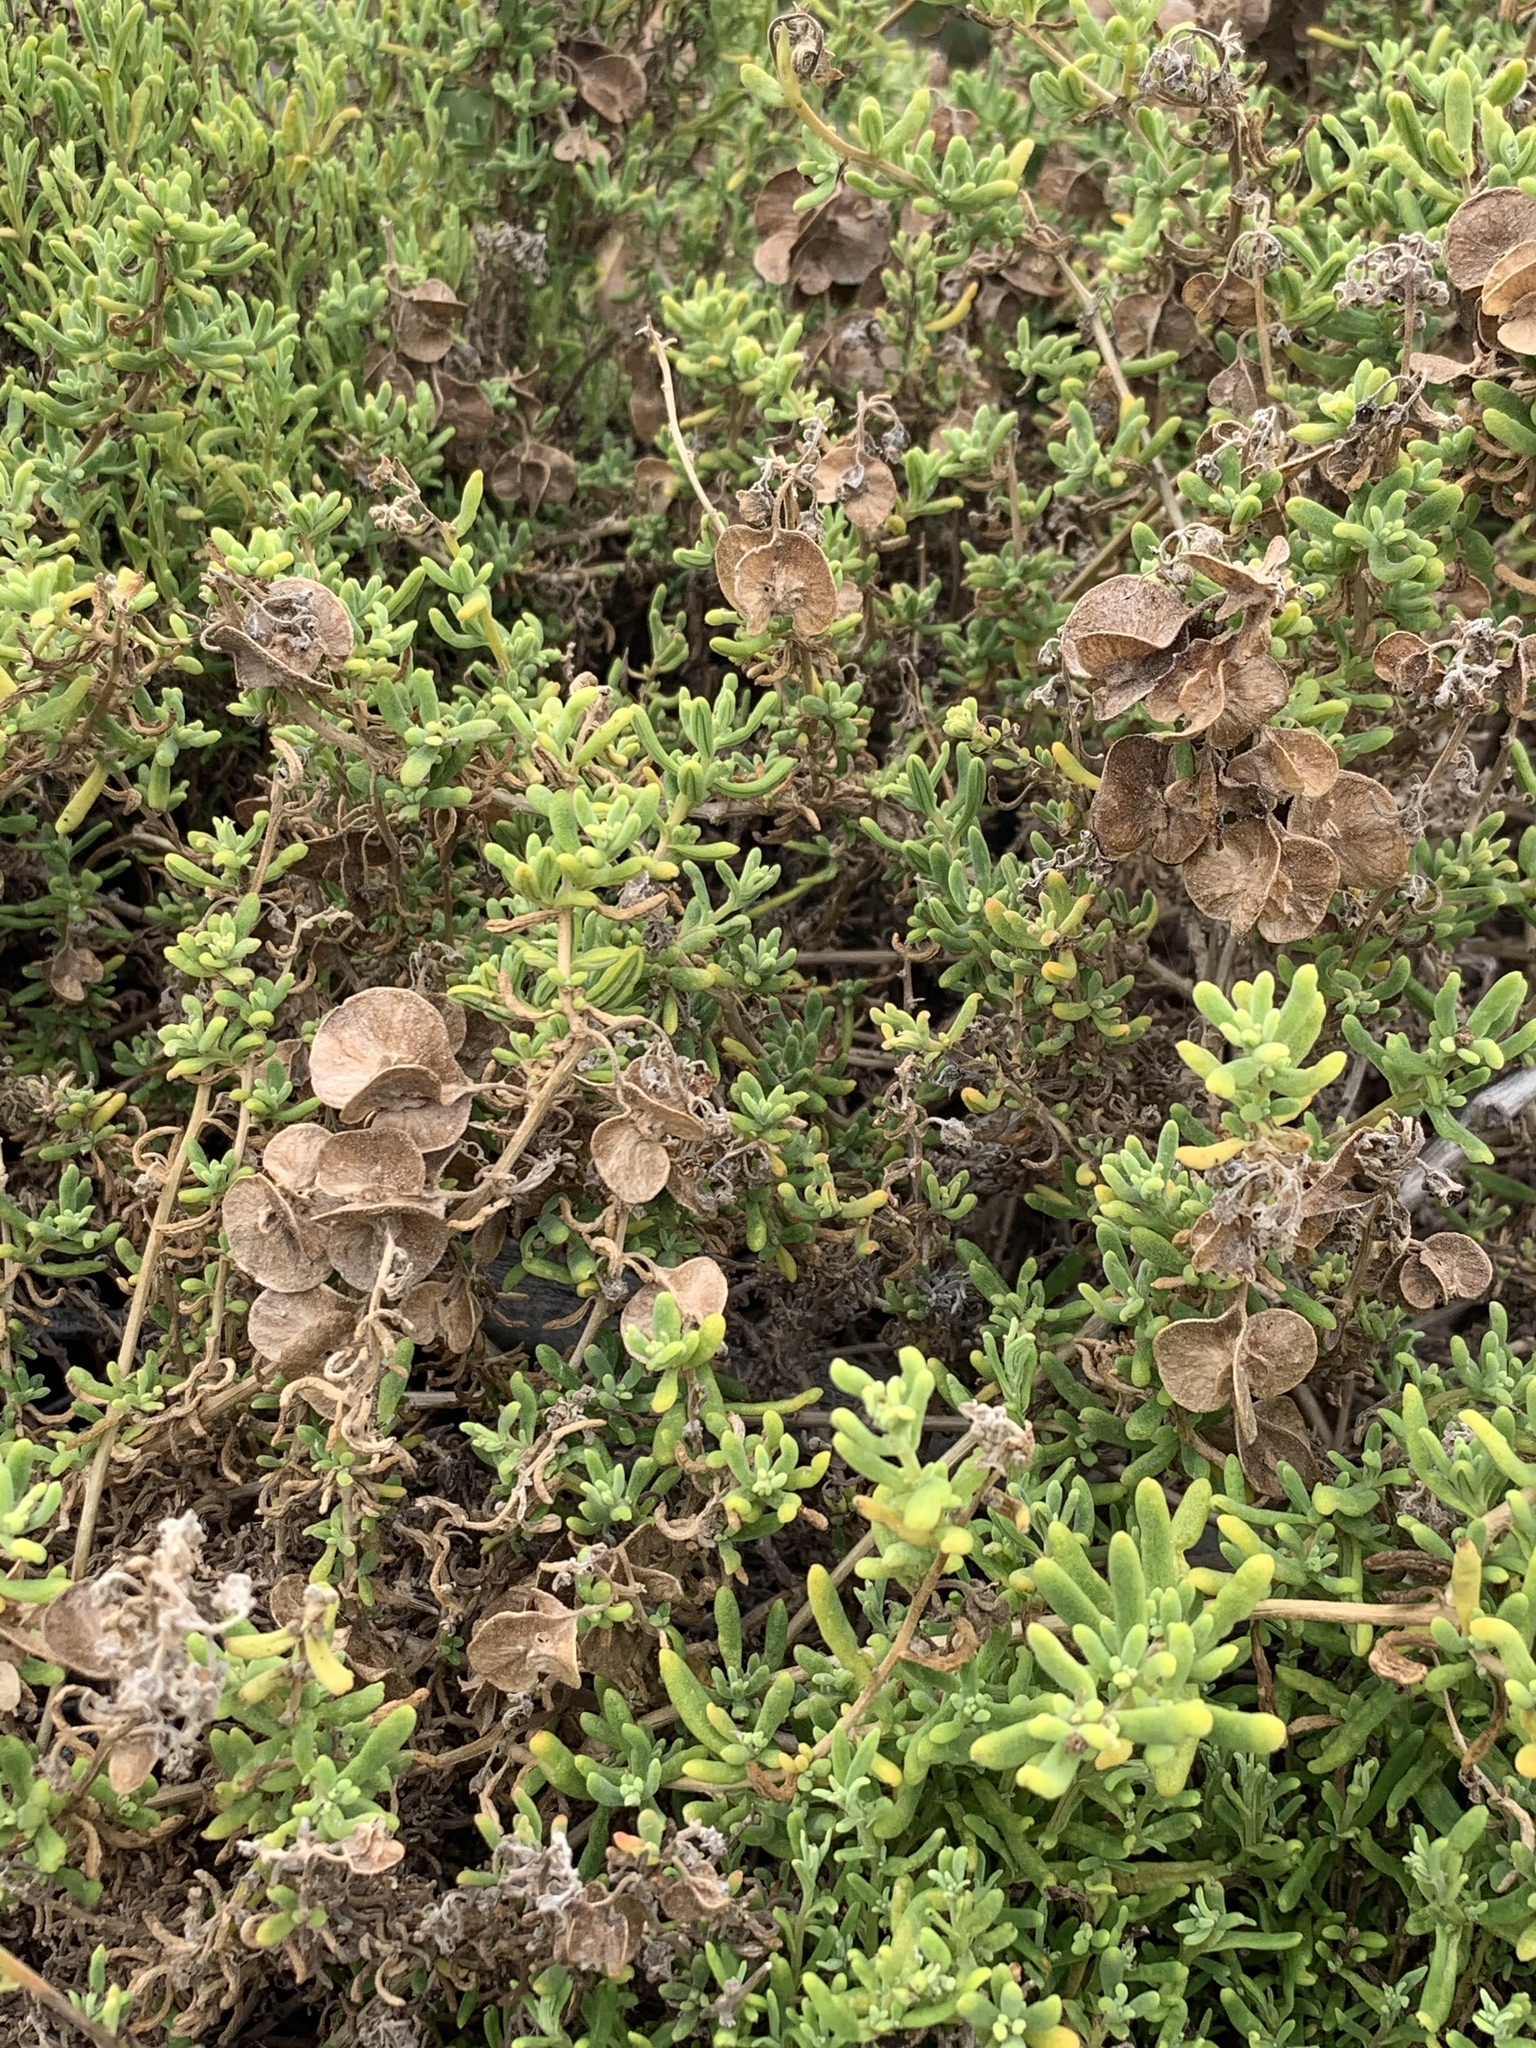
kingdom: Plantae
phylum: Tracheophyta
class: Magnoliopsida
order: Caryophyllales
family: Aizoaceae
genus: Tetragonia
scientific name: Tetragonia fruticosa
